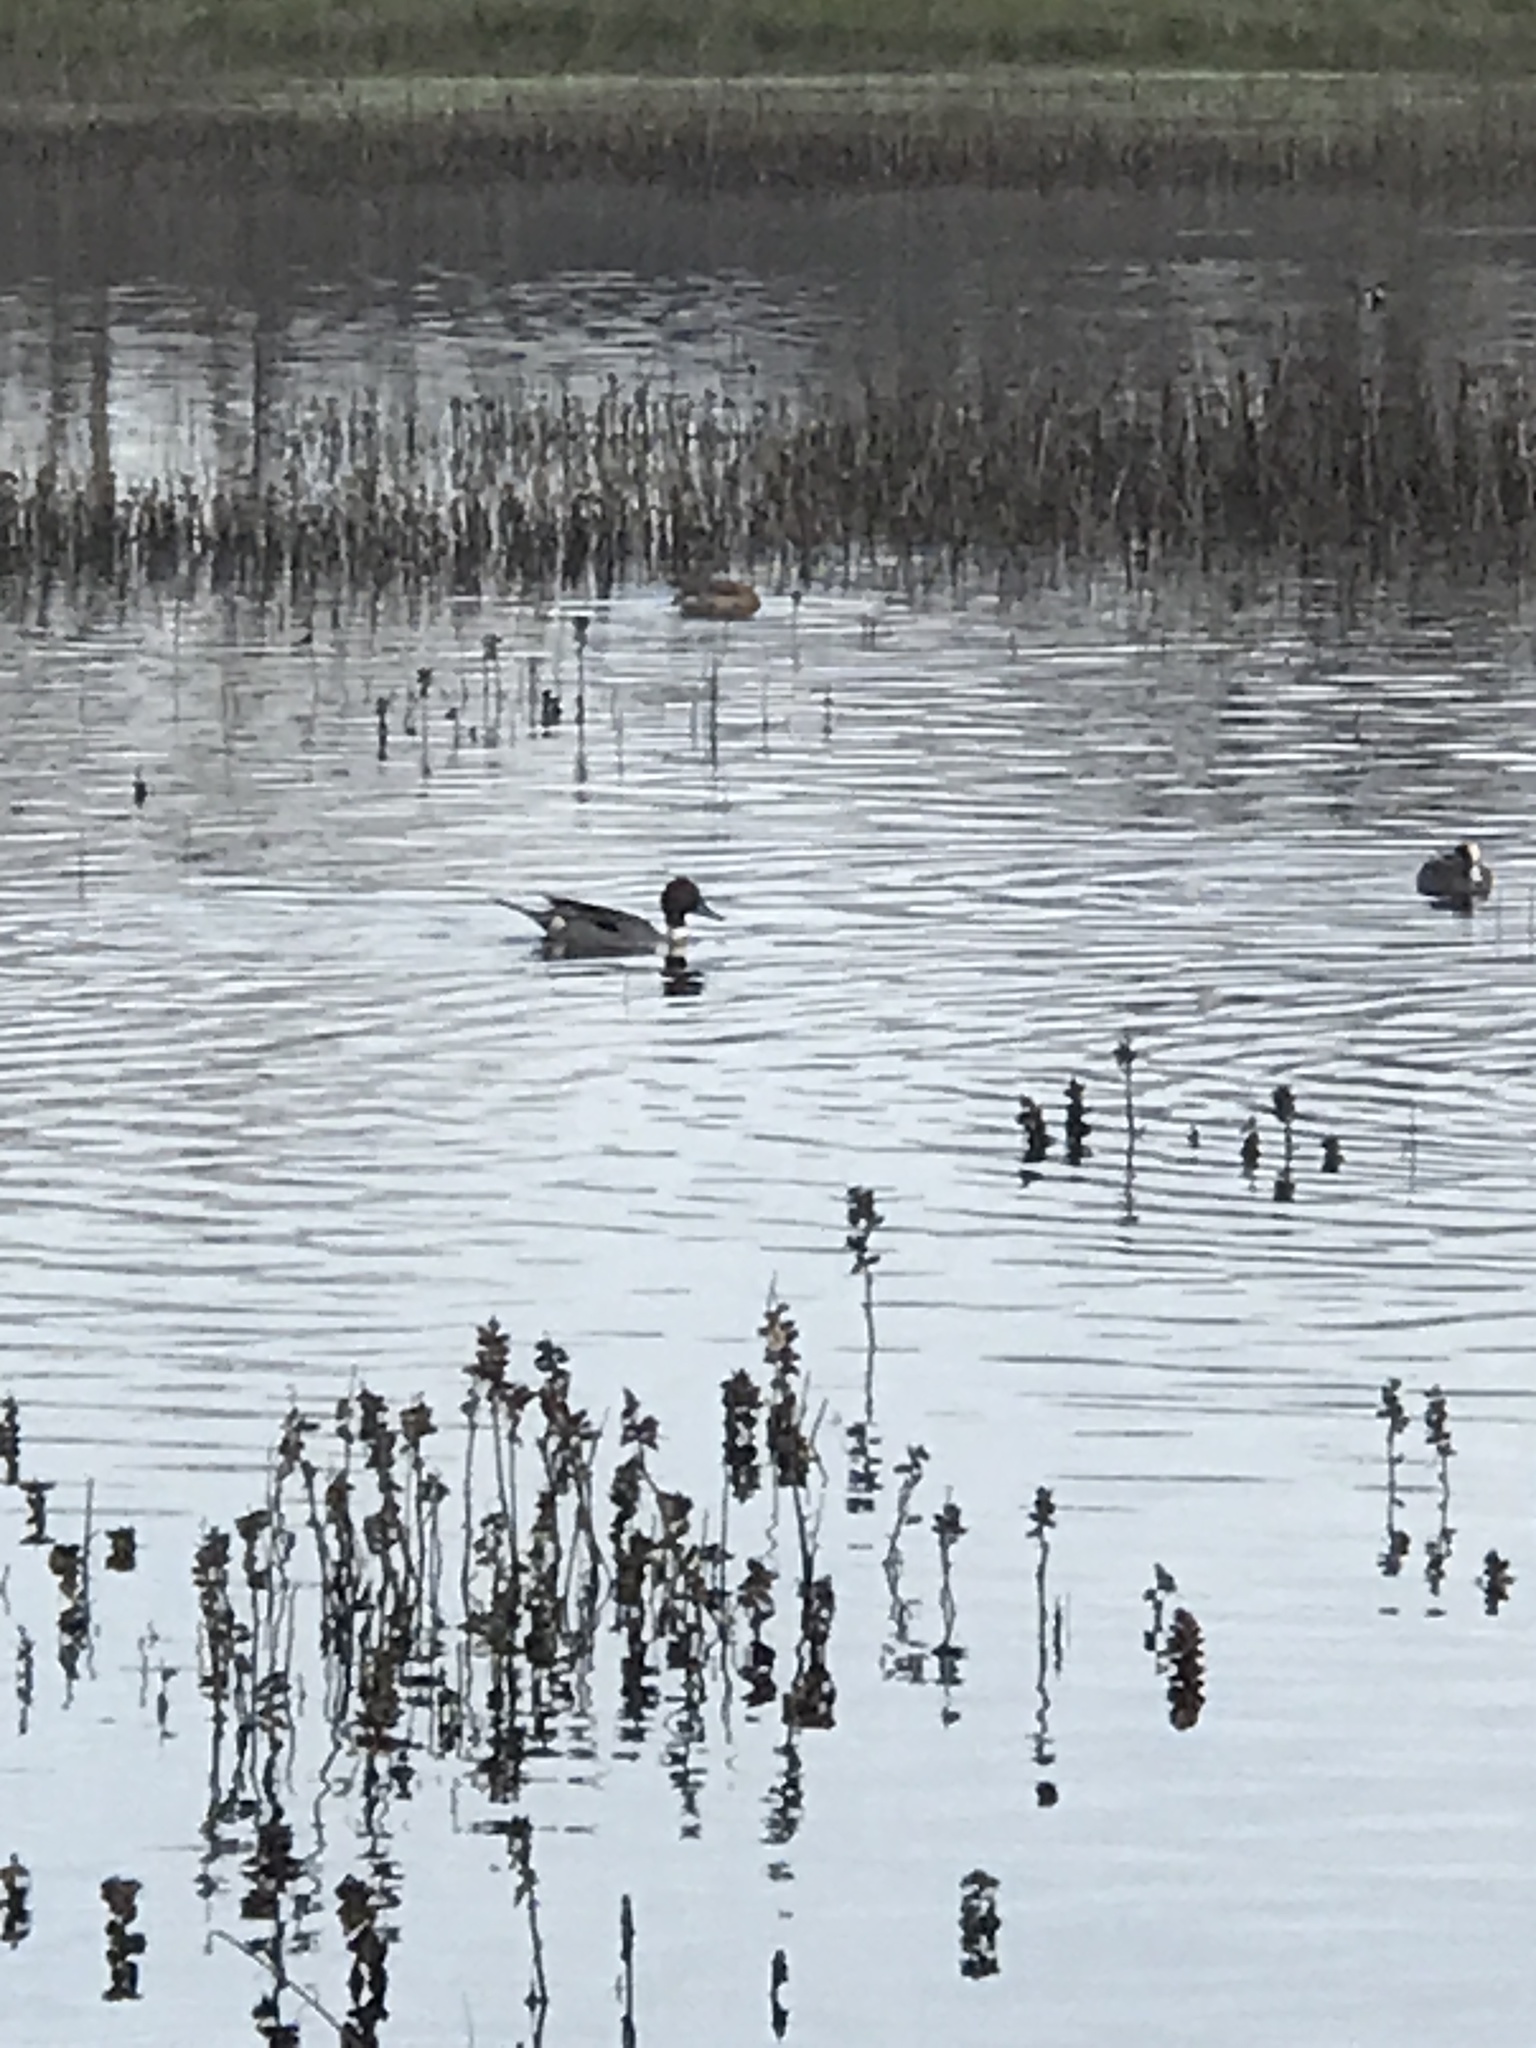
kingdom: Animalia
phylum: Chordata
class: Aves
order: Anseriformes
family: Anatidae
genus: Anas
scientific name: Anas acuta
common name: Northern pintail
